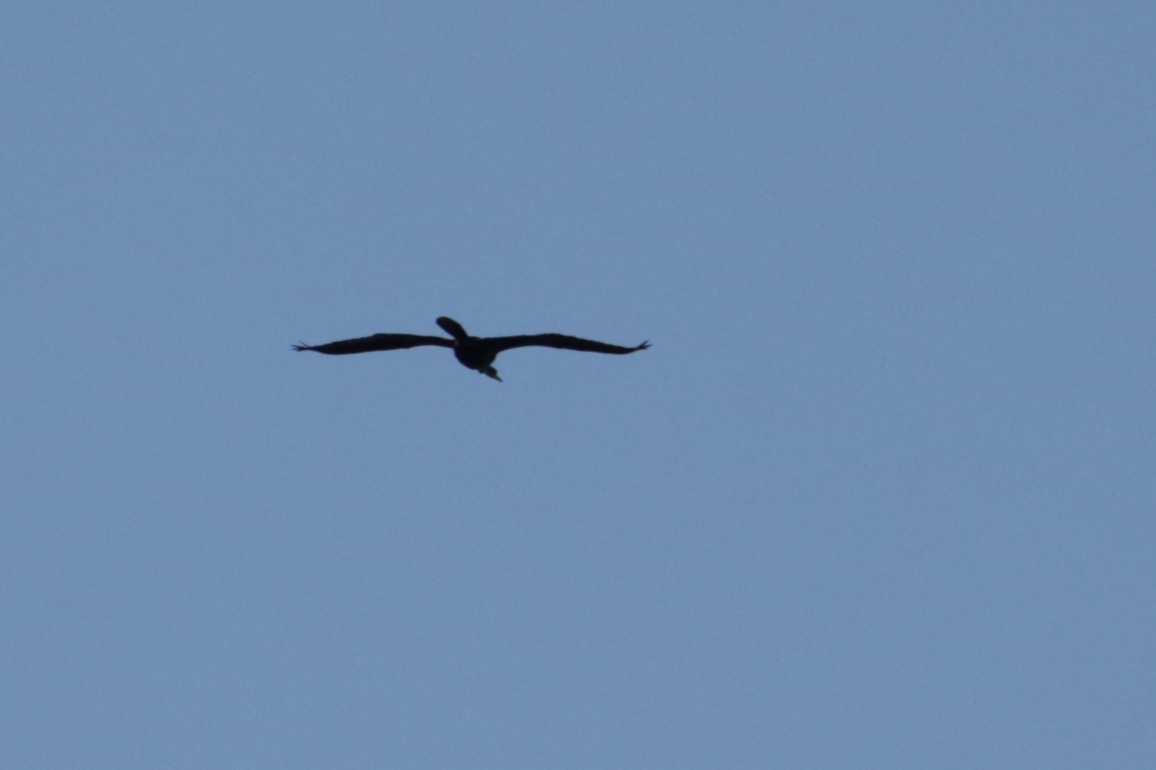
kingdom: Animalia
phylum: Chordata
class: Aves
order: Suliformes
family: Anhingidae
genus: Anhinga
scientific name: Anhinga anhinga
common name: Anhinga
